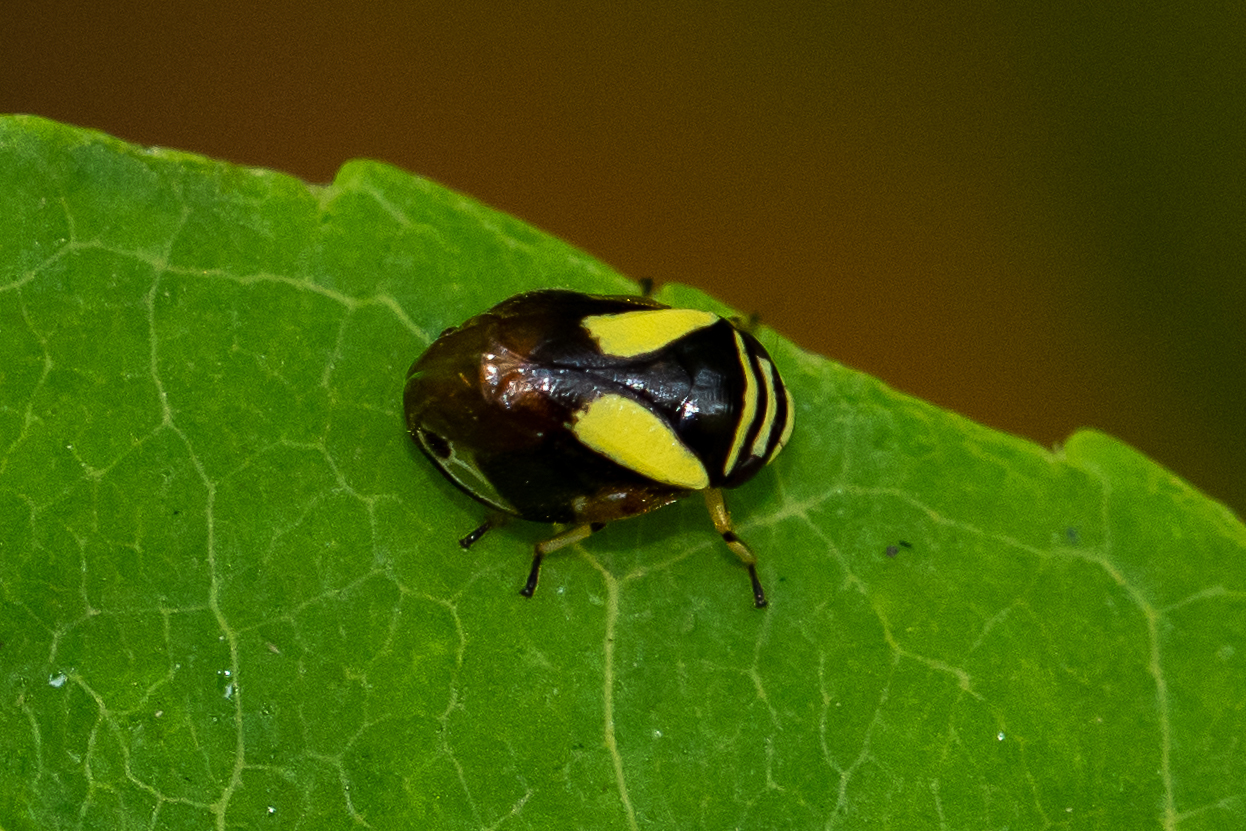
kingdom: Animalia
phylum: Arthropoda
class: Insecta
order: Hemiptera
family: Clastopteridae
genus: Clastoptera
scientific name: Clastoptera proteus
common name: Dogwood spittlebug
